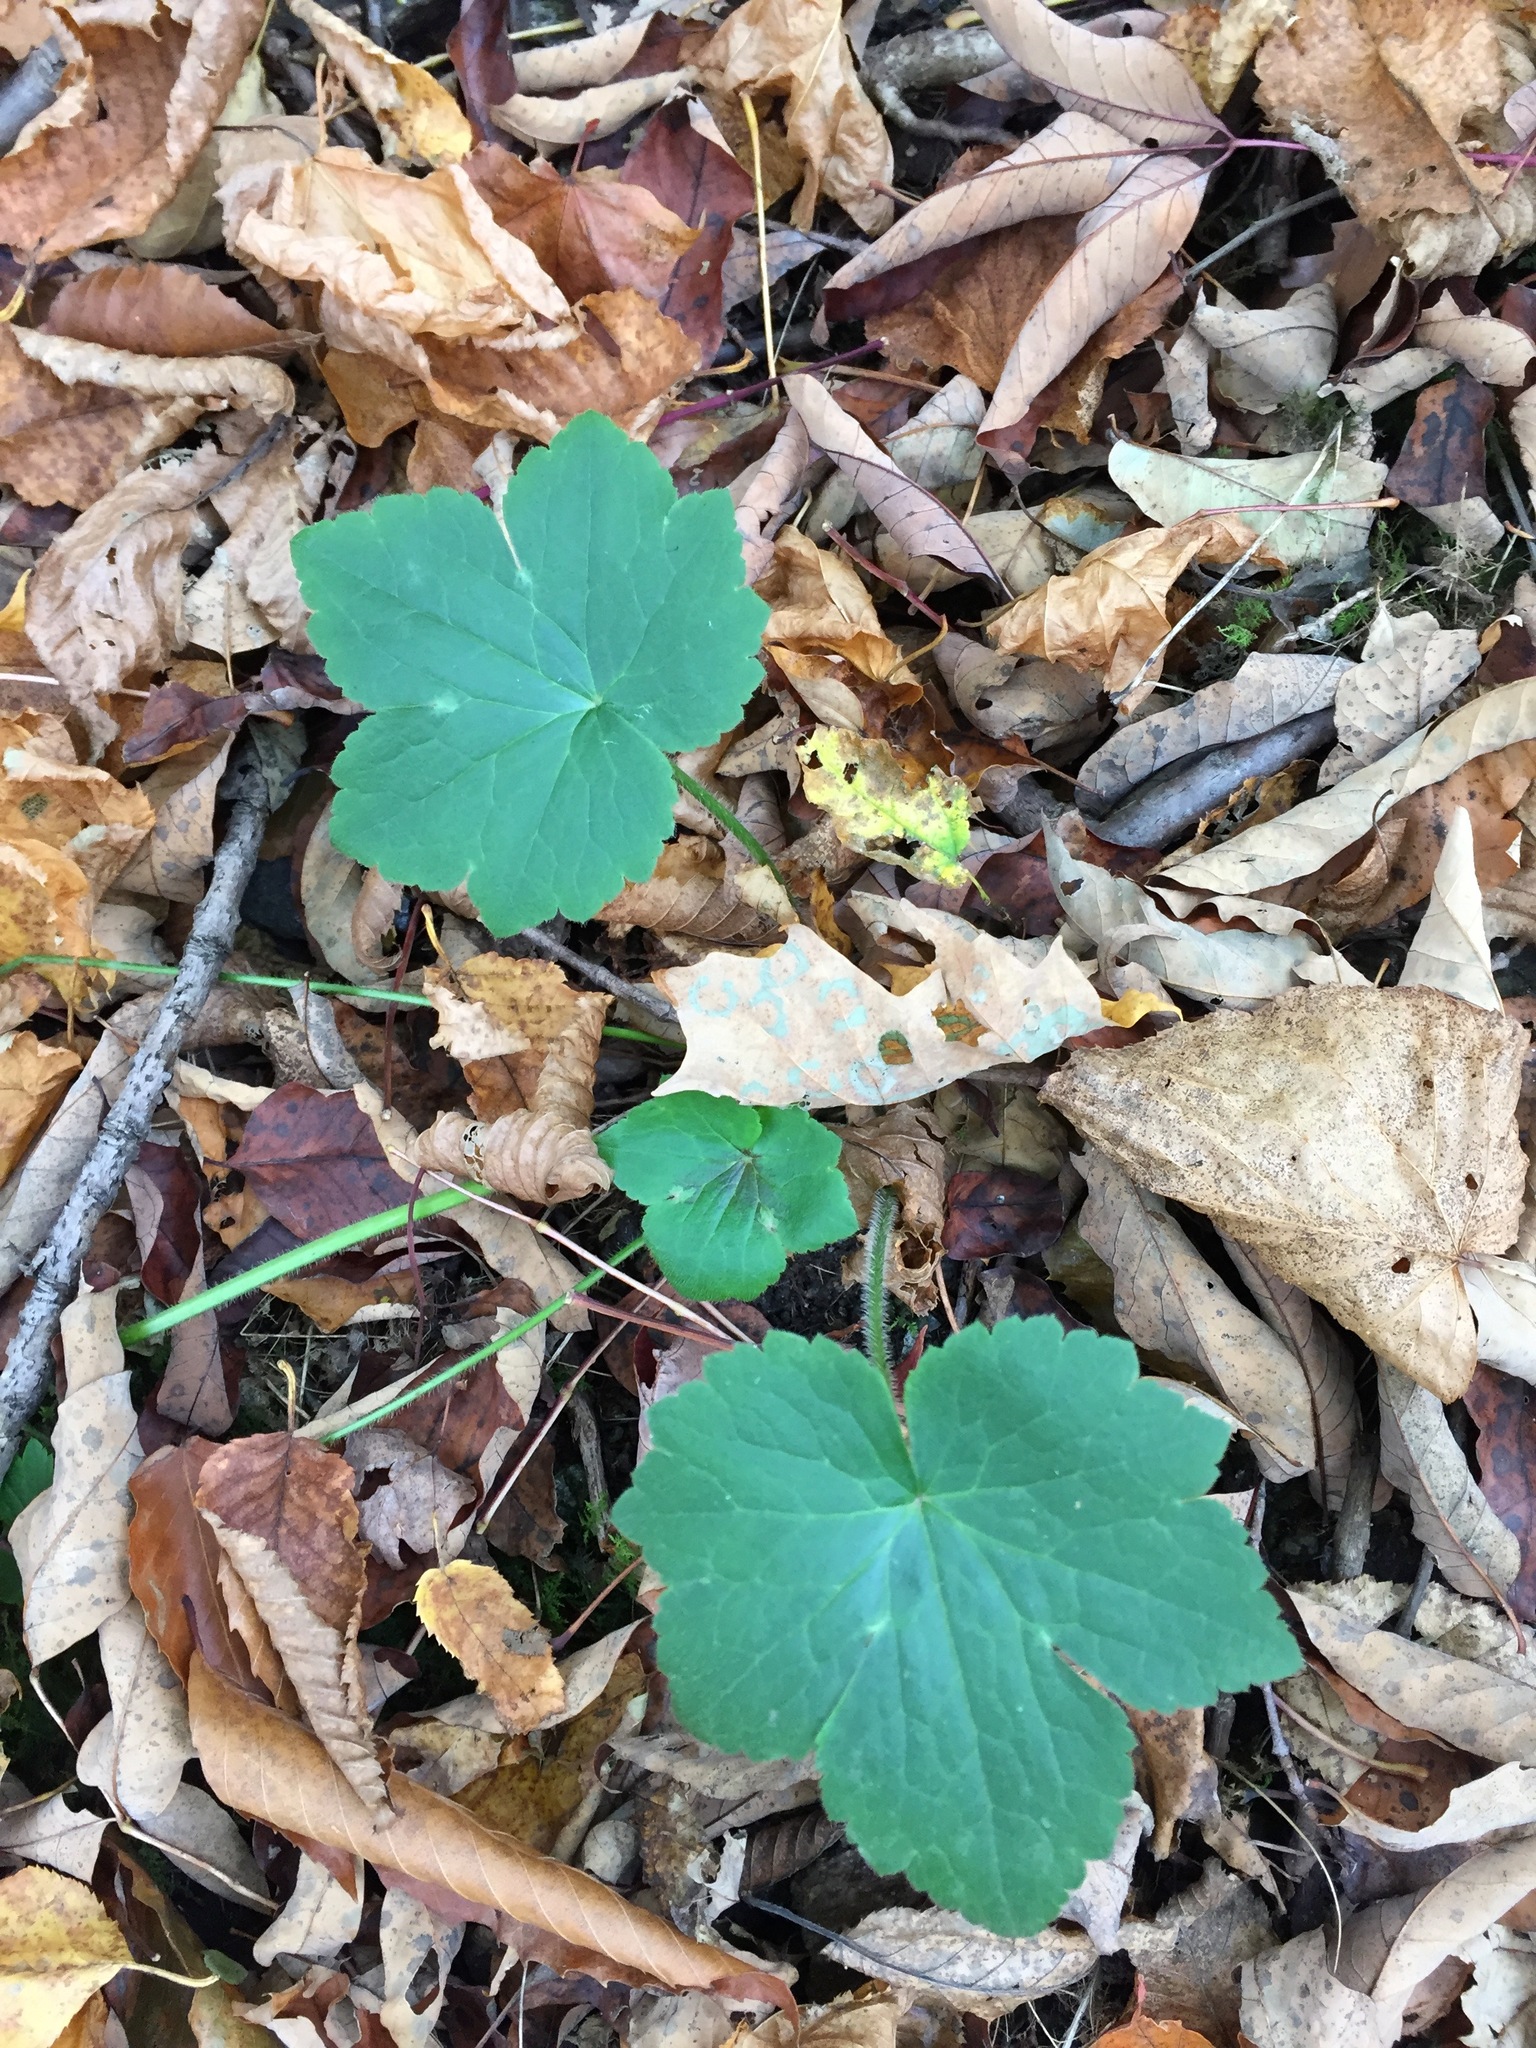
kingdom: Plantae
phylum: Tracheophyta
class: Magnoliopsida
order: Ranunculales
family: Ranunculaceae
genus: Ranunculus
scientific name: Ranunculus recurvatus
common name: Blisterwort
